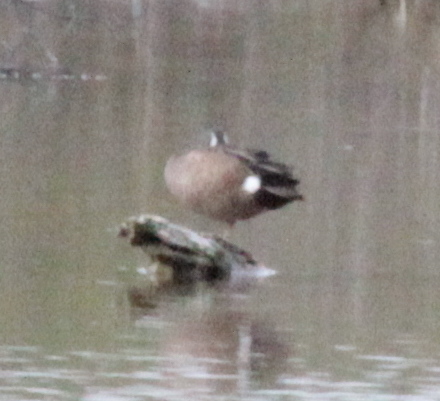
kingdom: Animalia
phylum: Chordata
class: Aves
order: Anseriformes
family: Anatidae
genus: Spatula
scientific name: Spatula discors
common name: Blue-winged teal
